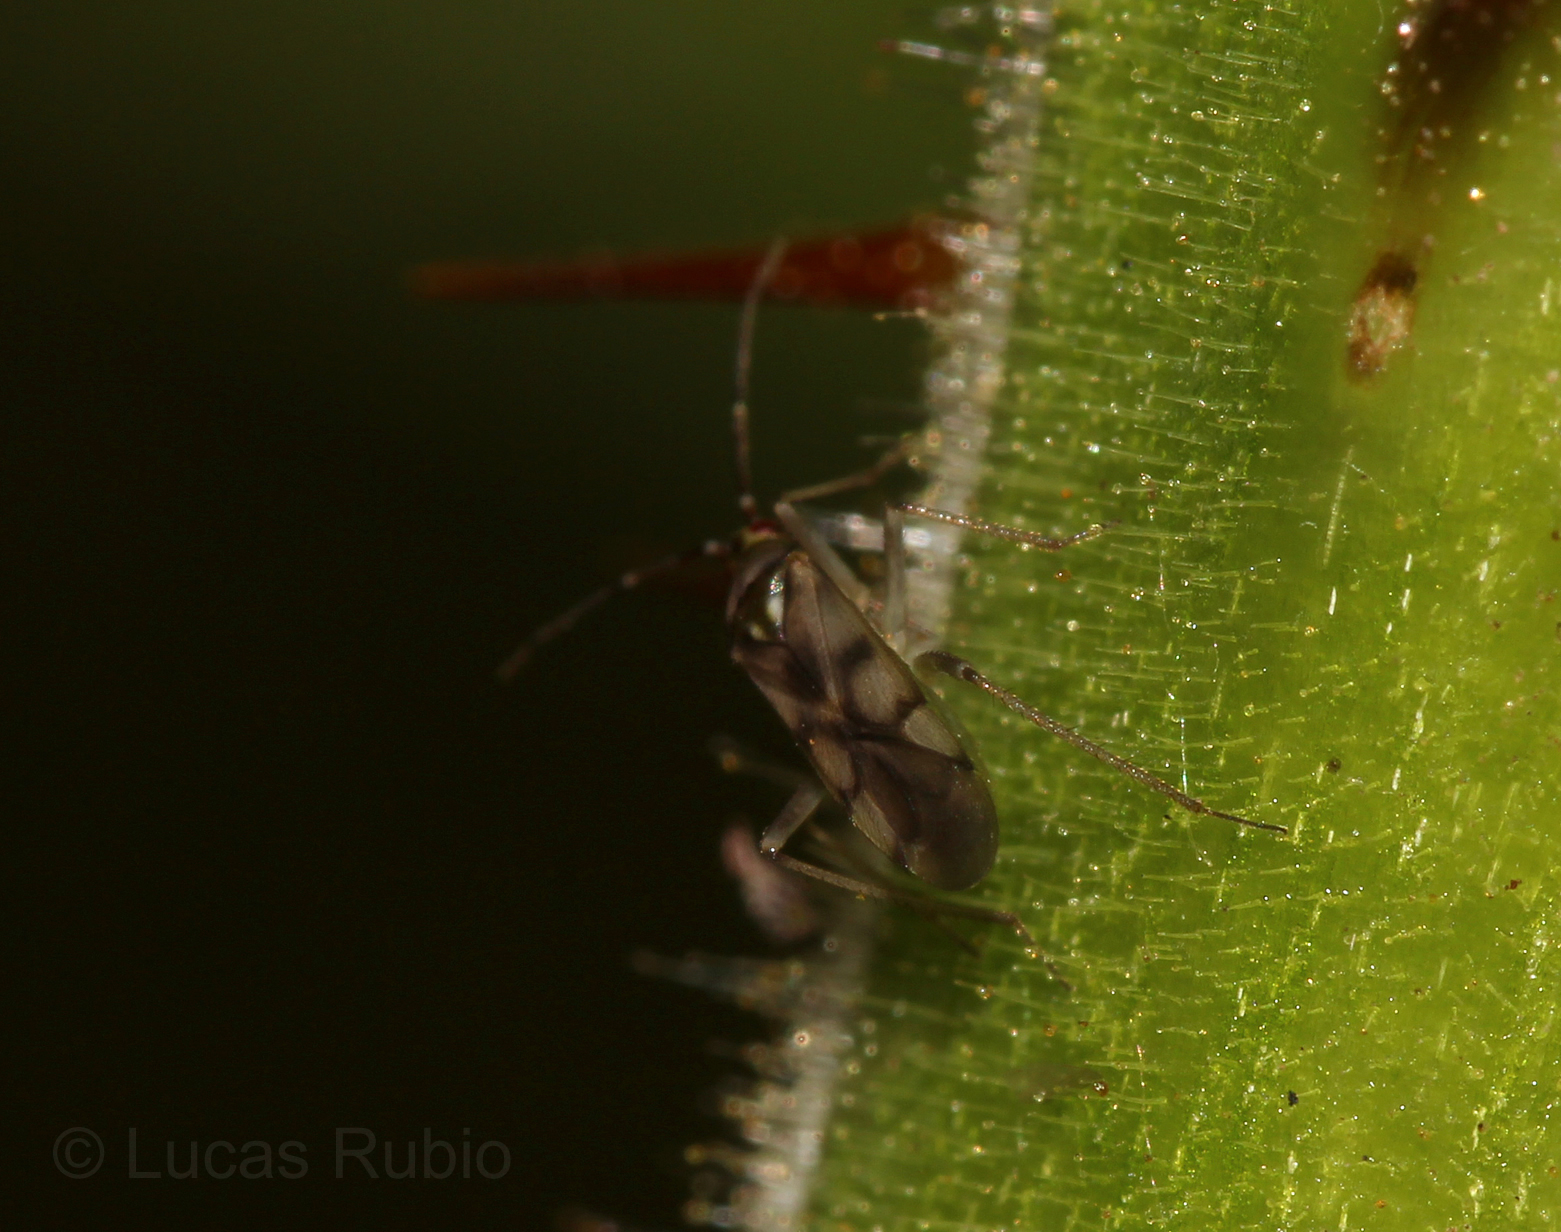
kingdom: Animalia
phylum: Arthropoda
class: Insecta
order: Hemiptera
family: Miridae
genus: Campyloneuropsis
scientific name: Campyloneuropsis cincticornis
